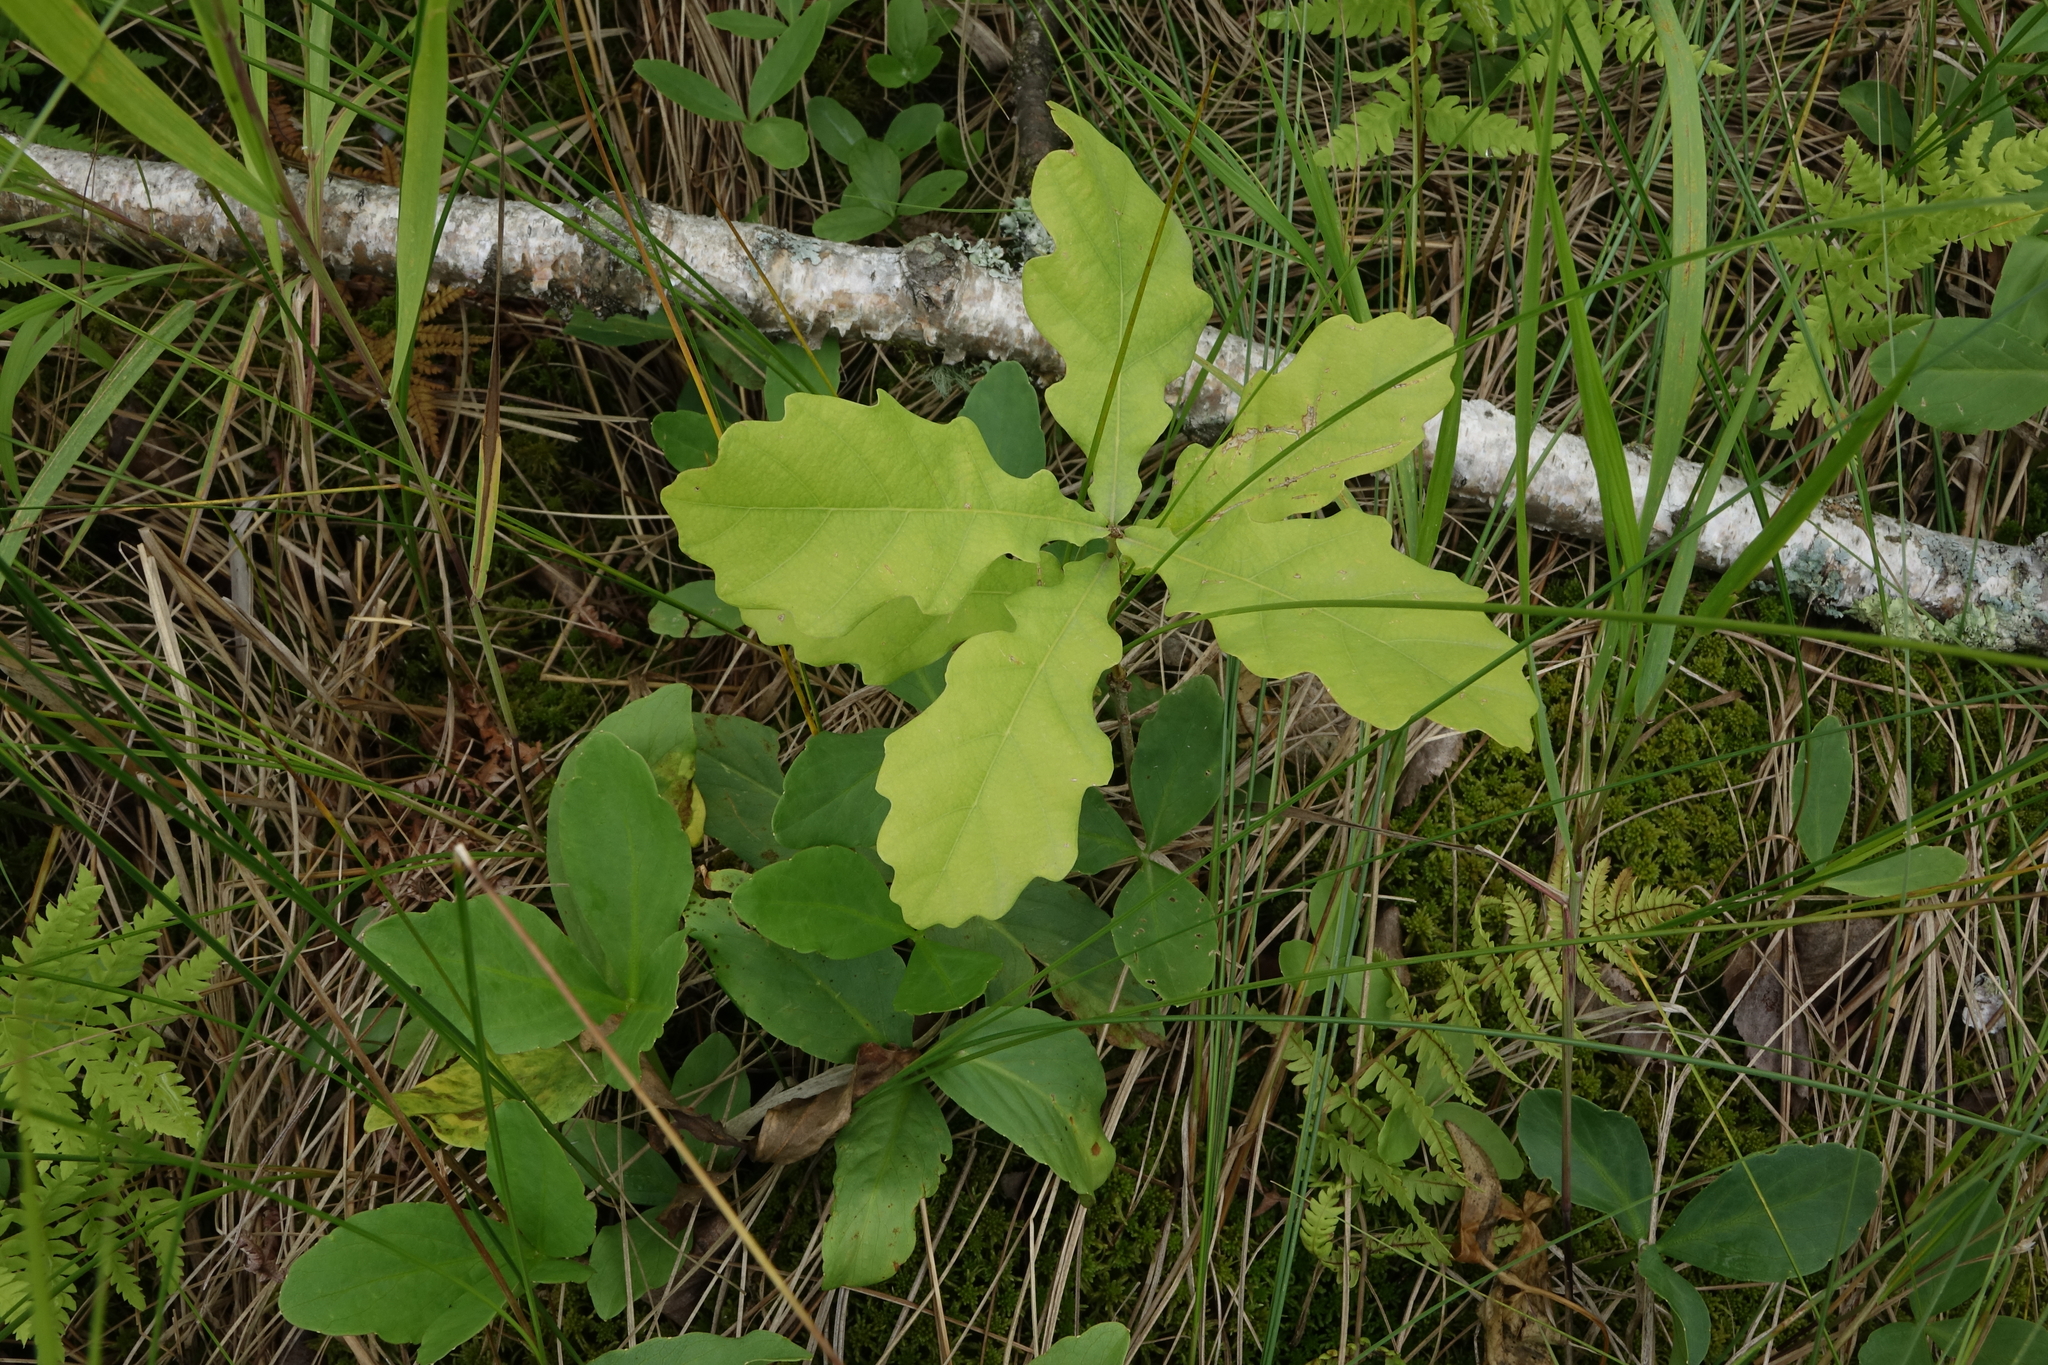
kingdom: Plantae
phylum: Tracheophyta
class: Magnoliopsida
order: Fagales
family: Fagaceae
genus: Quercus
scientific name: Quercus robur
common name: Pedunculate oak
